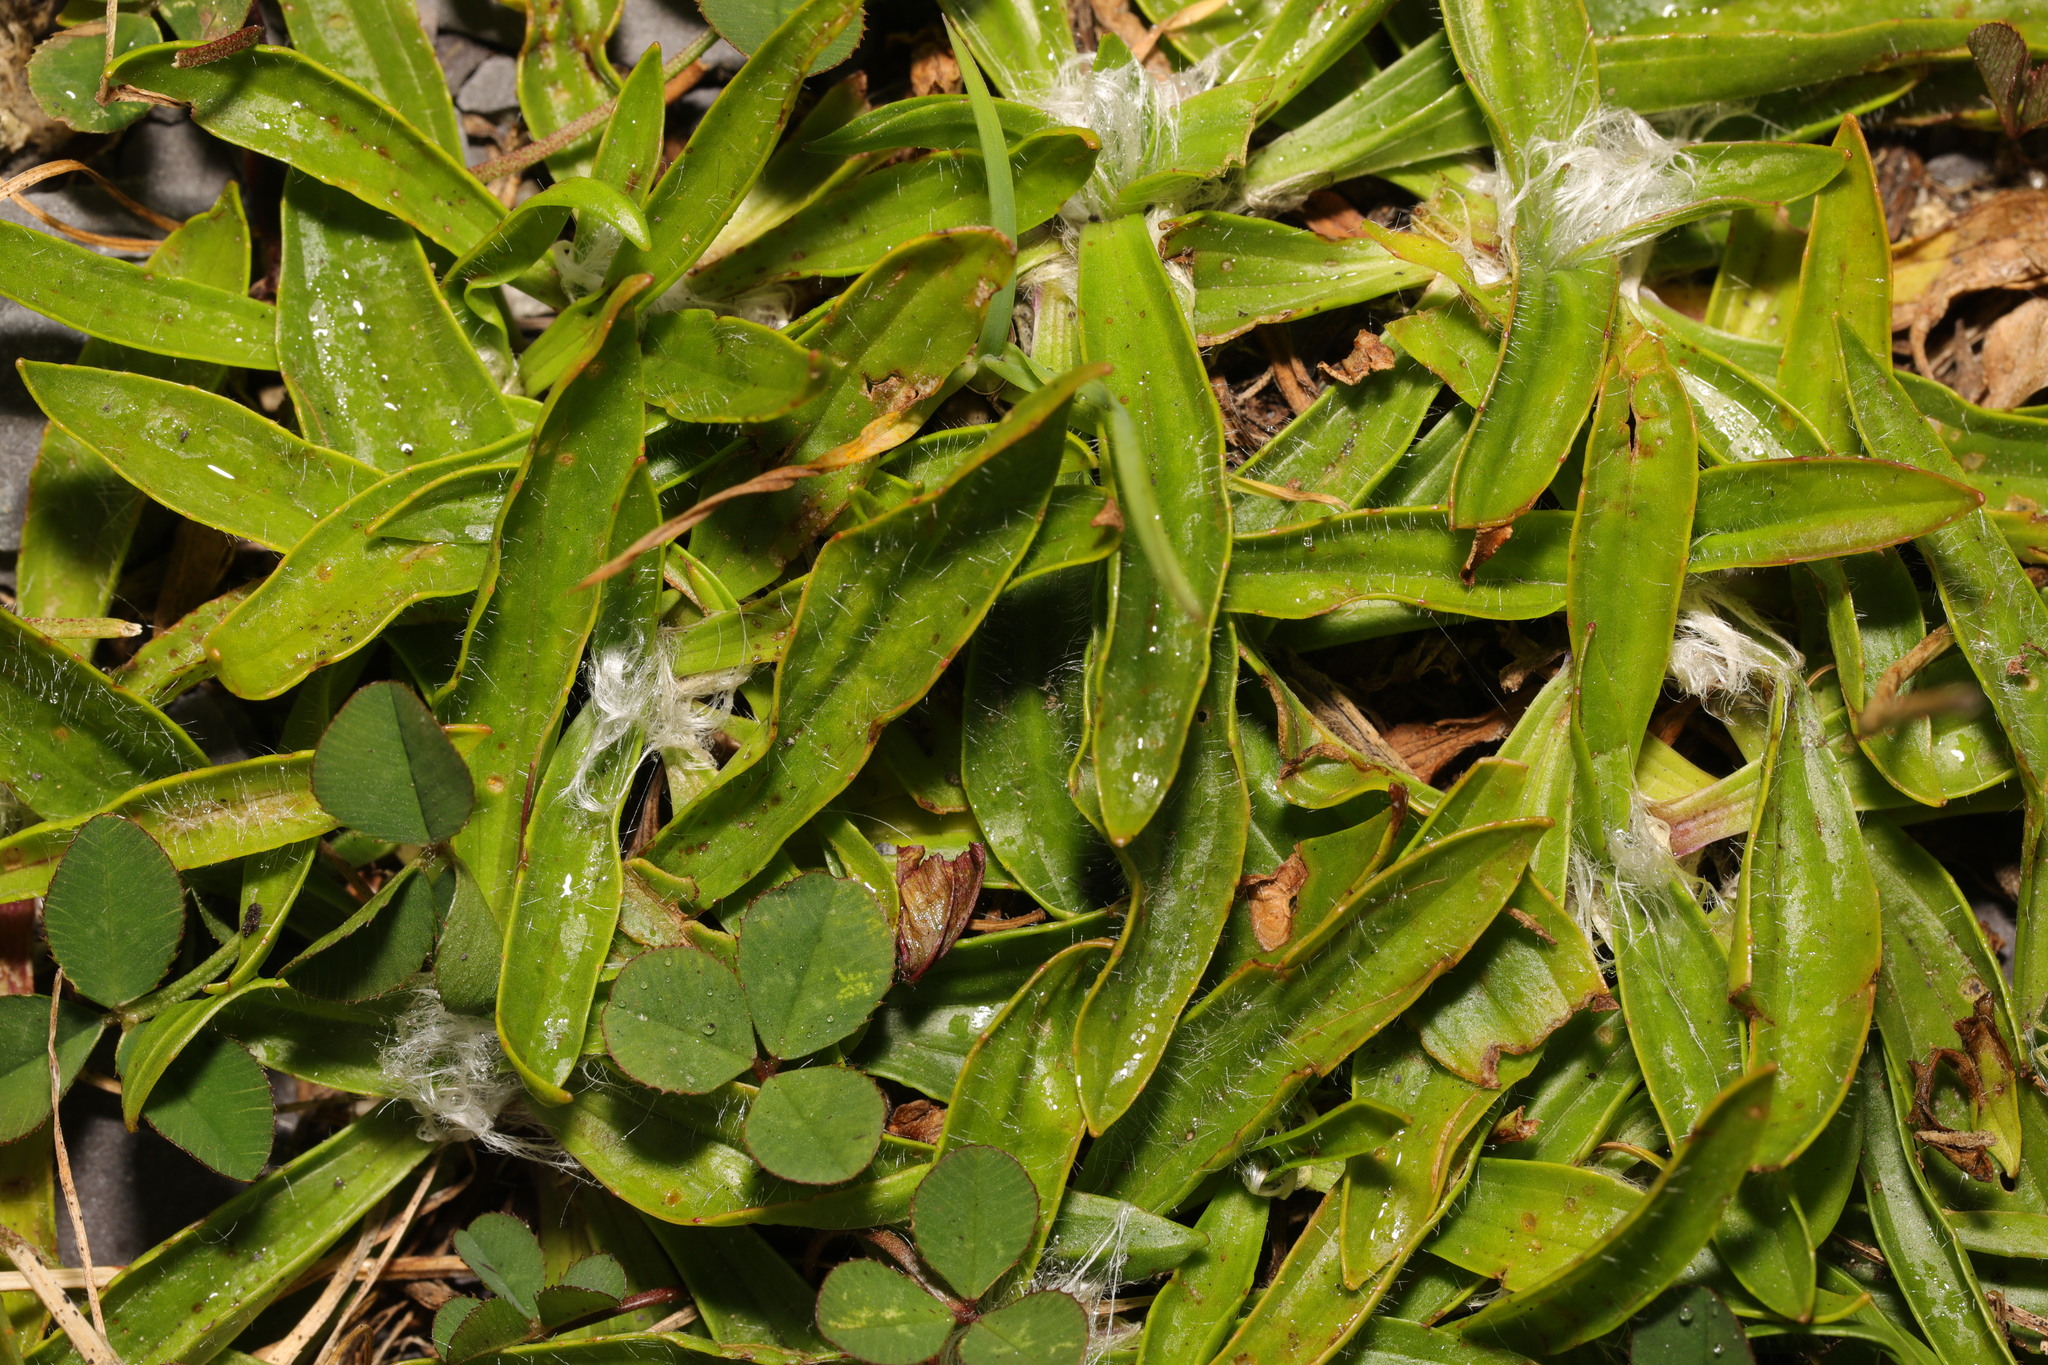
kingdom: Plantae
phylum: Tracheophyta
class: Magnoliopsida
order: Lamiales
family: Plantaginaceae
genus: Plantago
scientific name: Plantago lanceolata
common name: Ribwort plantain
